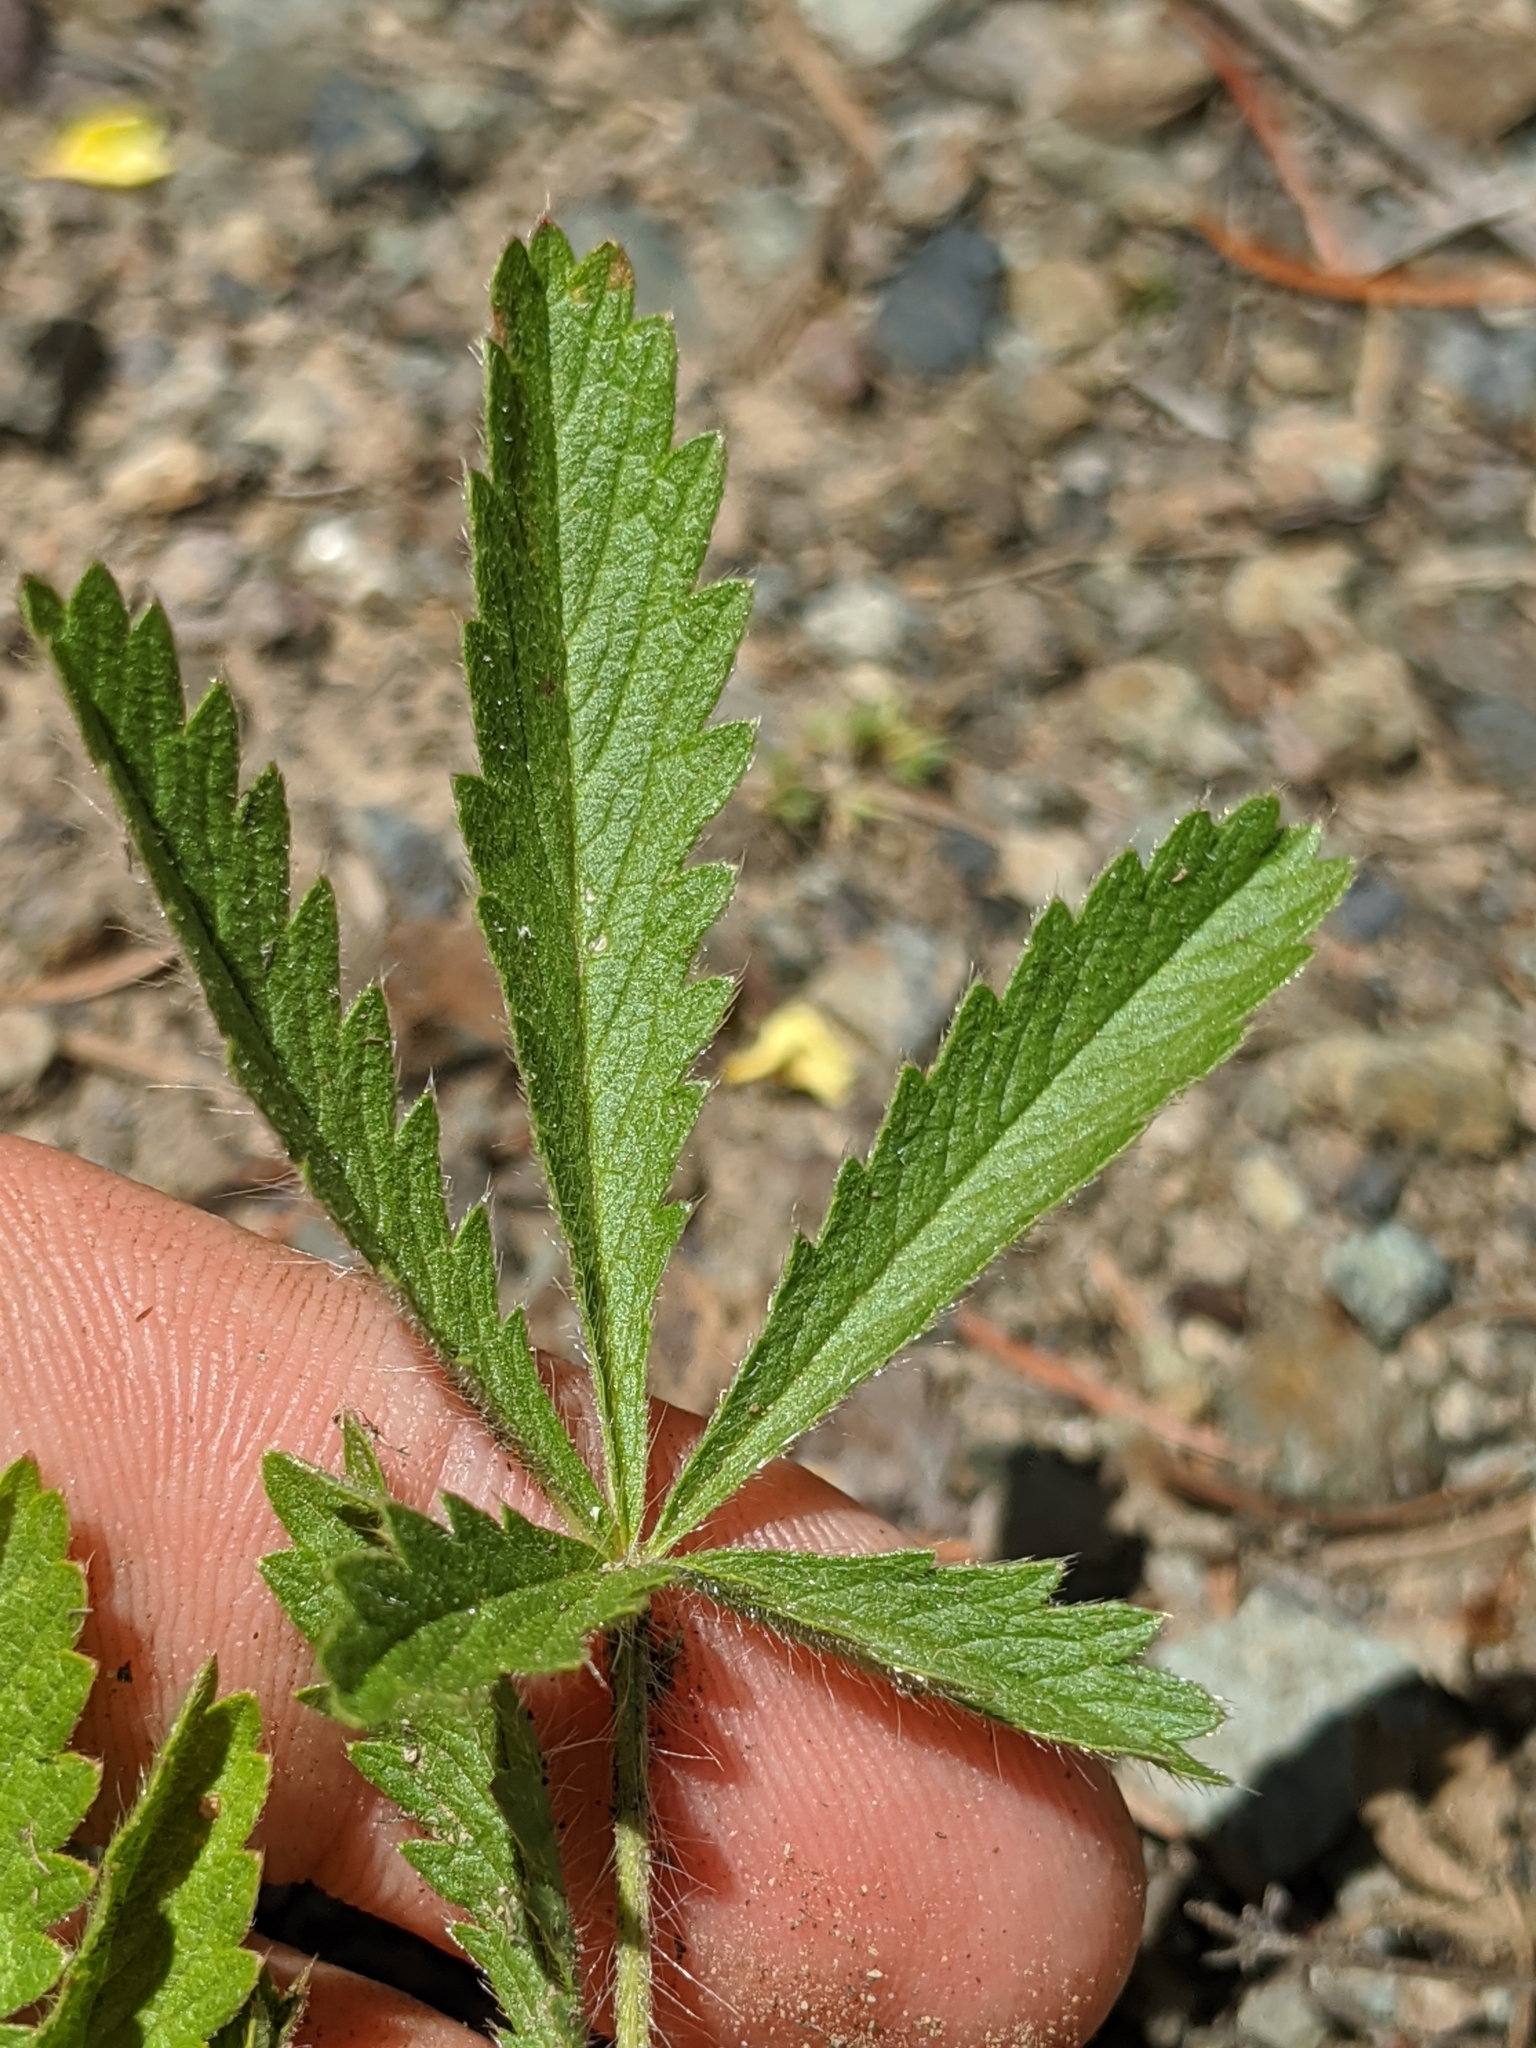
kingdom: Plantae
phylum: Tracheophyta
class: Magnoliopsida
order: Rosales
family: Rosaceae
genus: Potentilla
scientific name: Potentilla recta
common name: Sulphur cinquefoil
